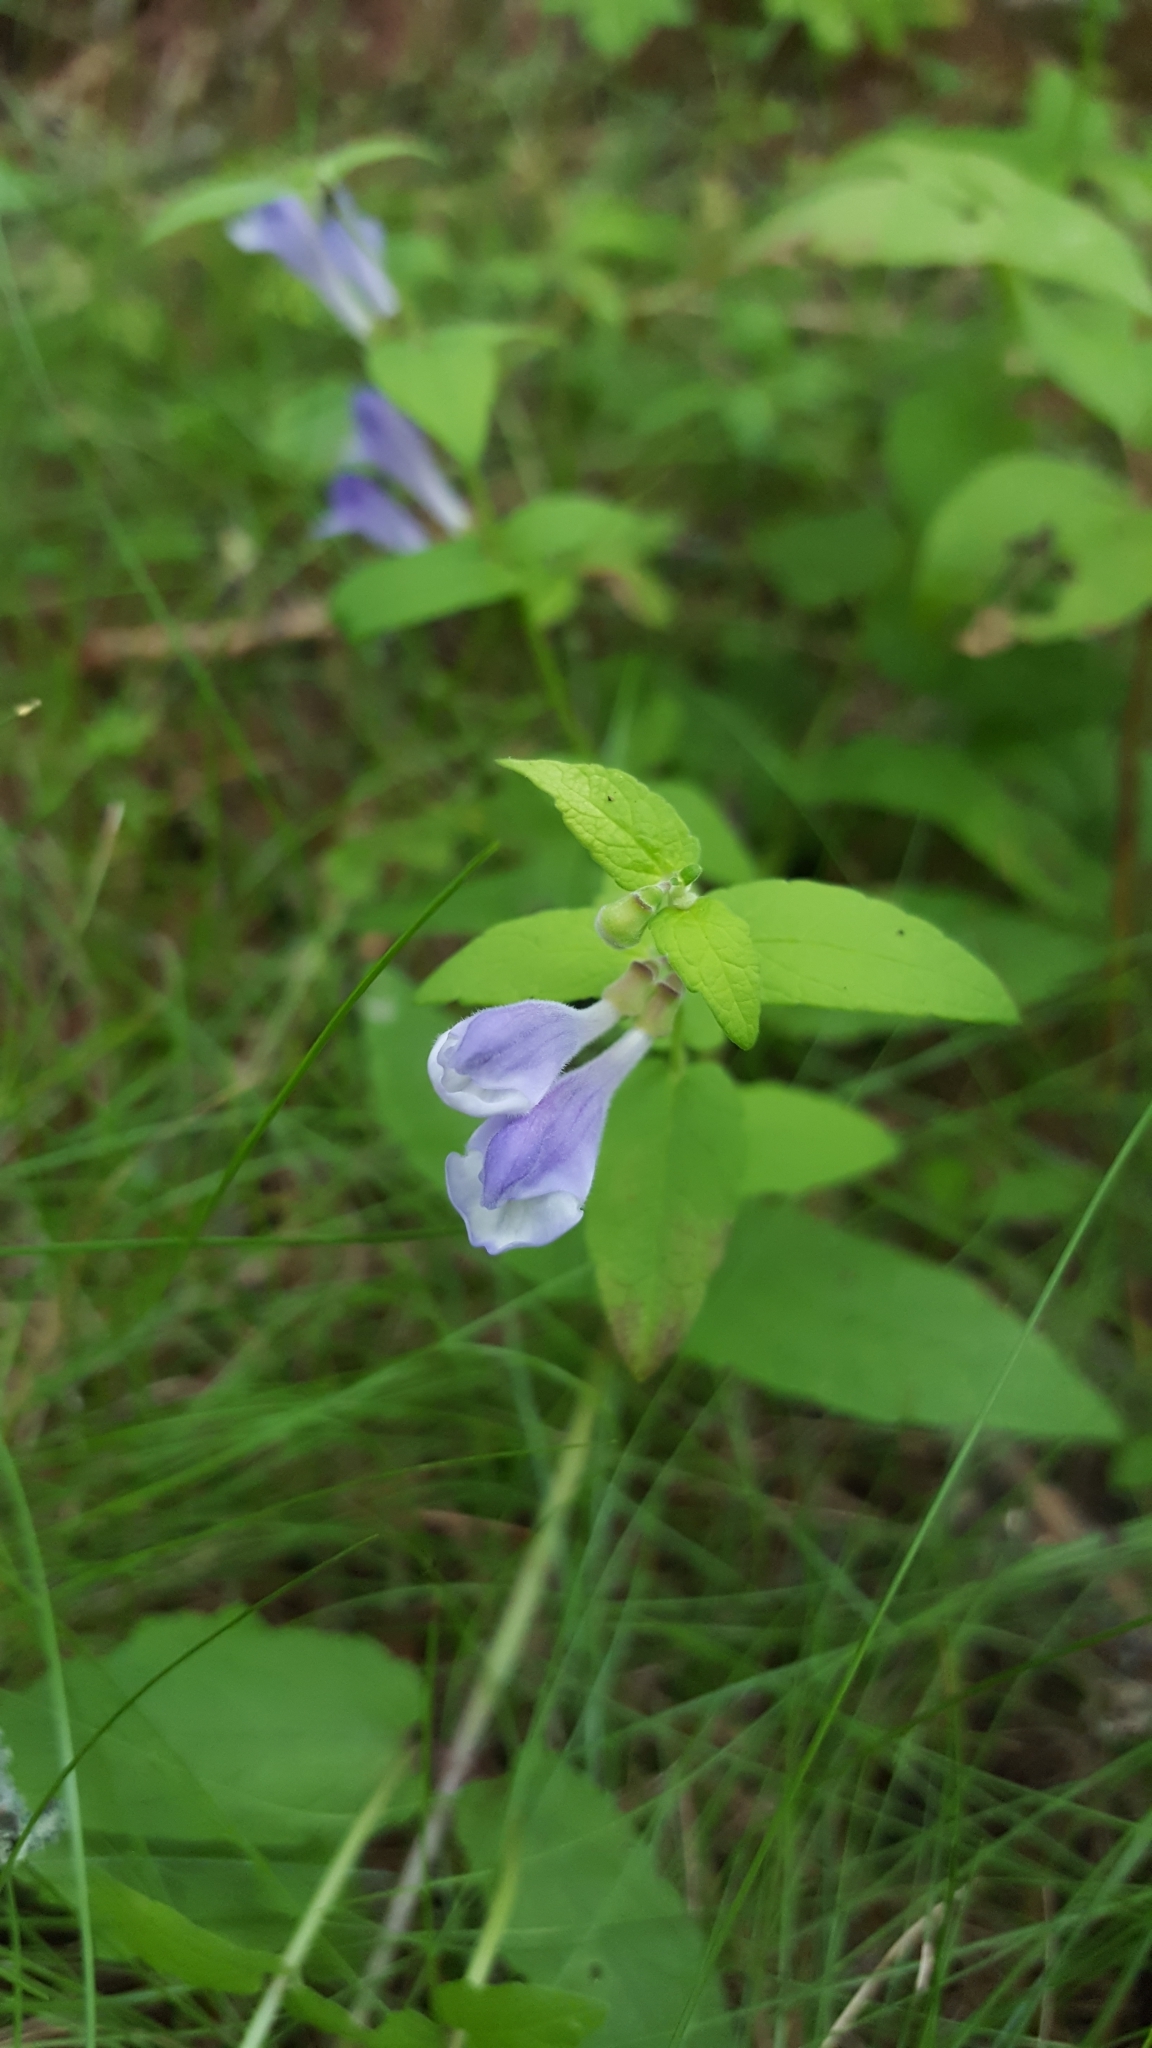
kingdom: Plantae
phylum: Tracheophyta
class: Magnoliopsida
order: Lamiales
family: Lamiaceae
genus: Scutellaria
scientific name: Scutellaria galericulata
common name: Skullcap
